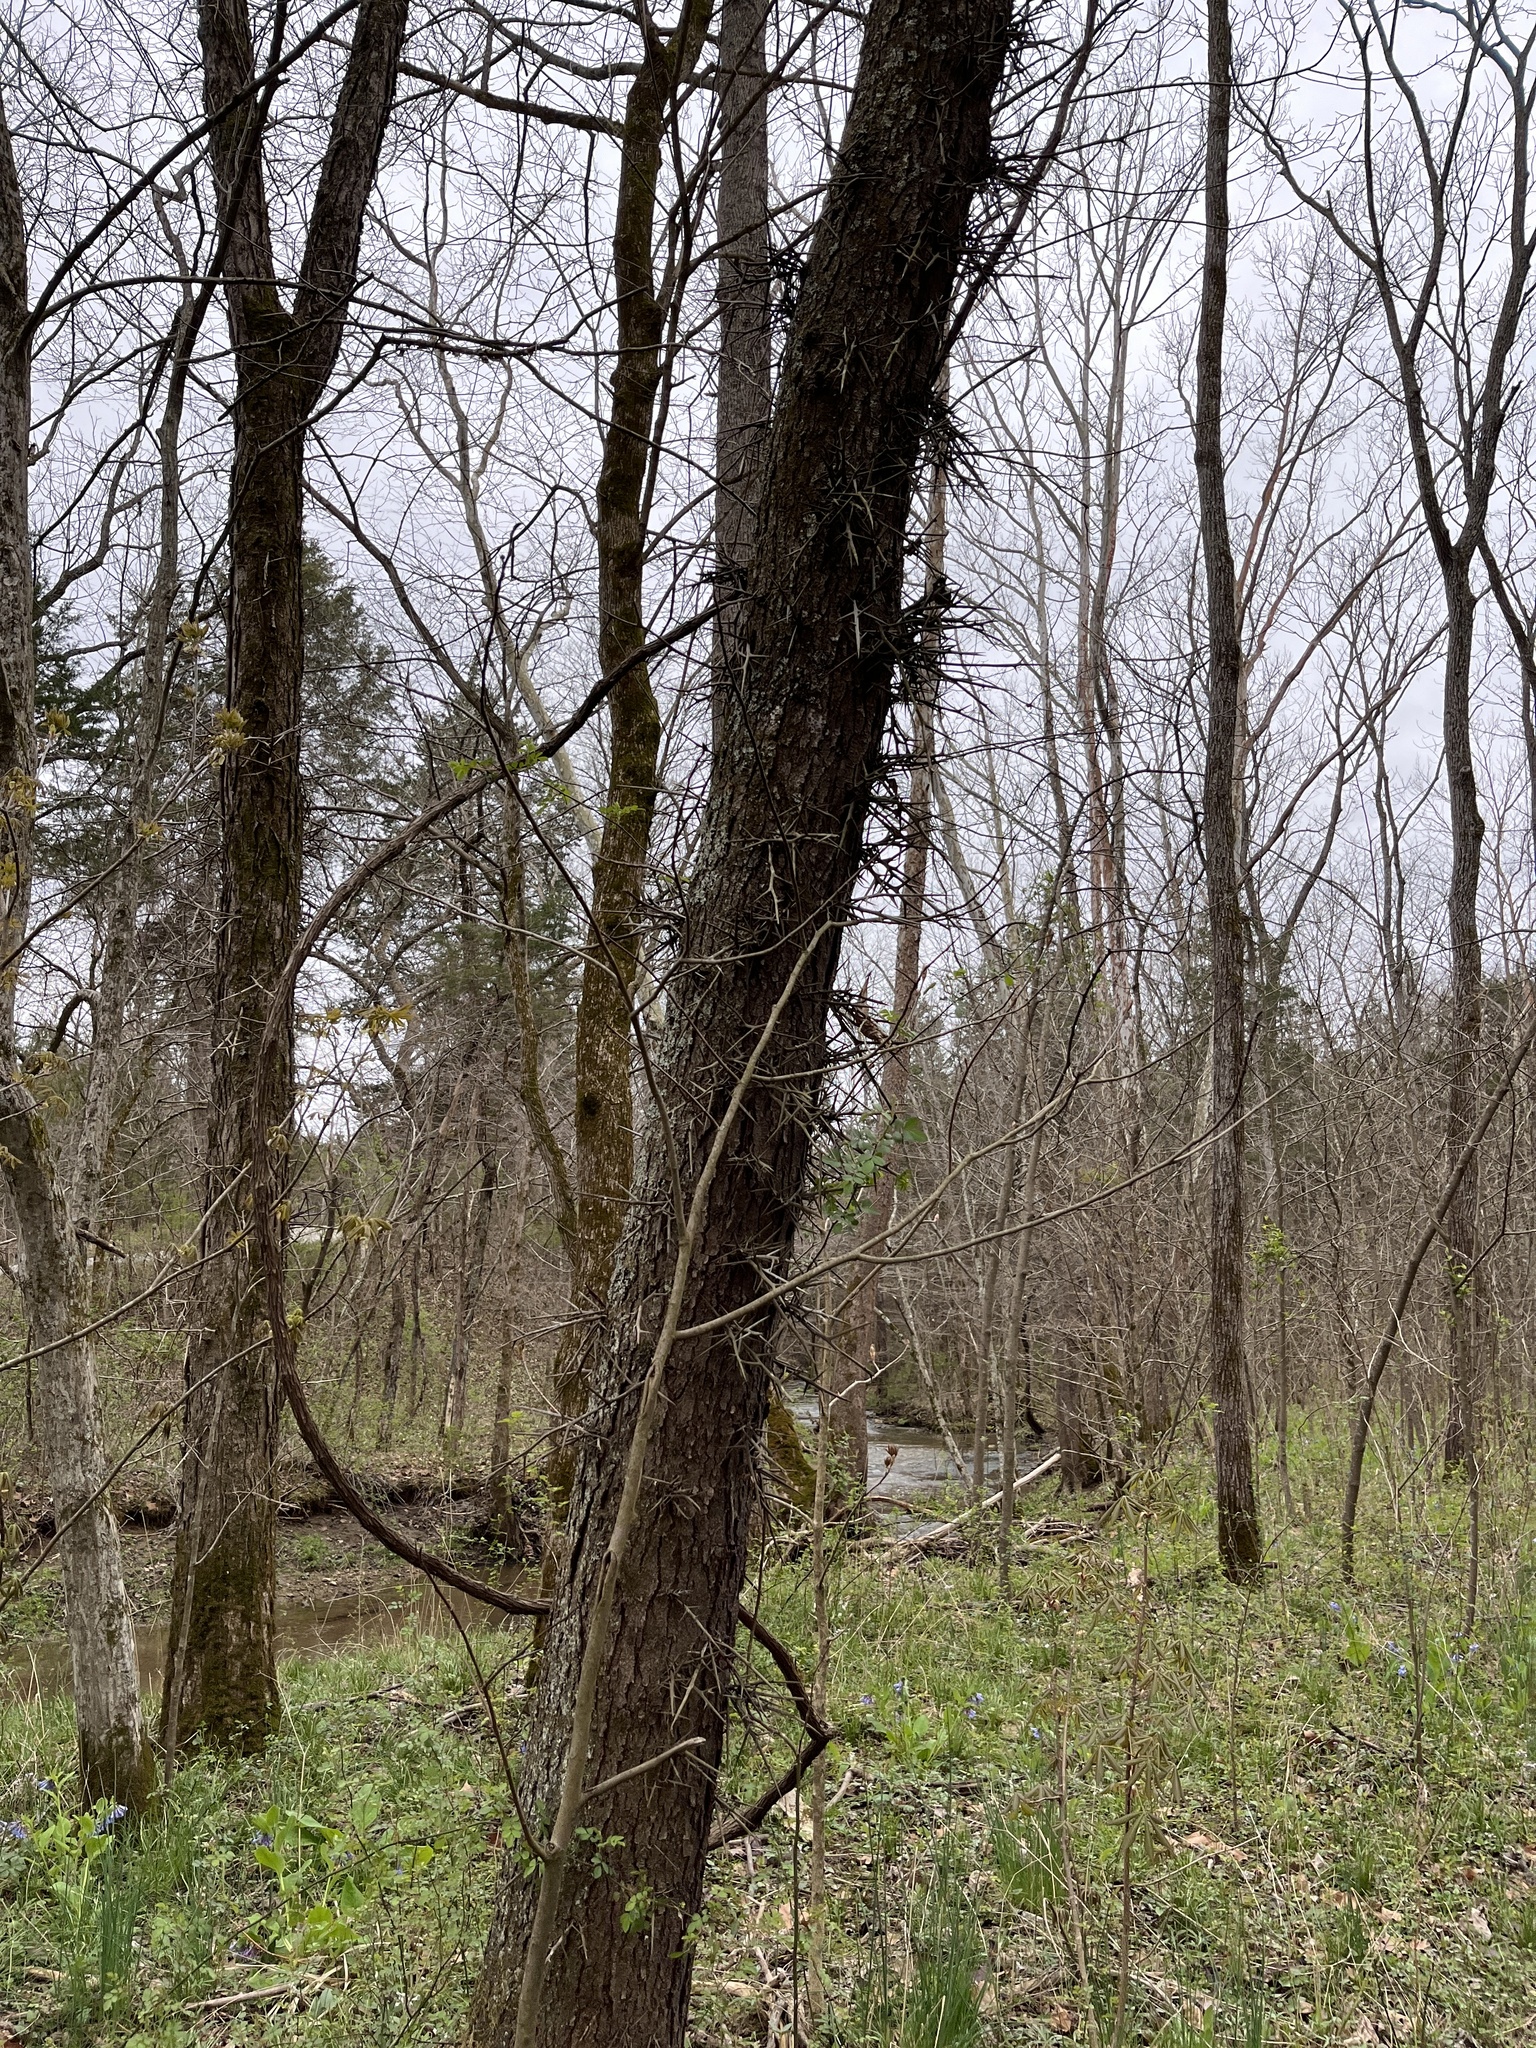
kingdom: Plantae
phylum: Tracheophyta
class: Magnoliopsida
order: Fabales
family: Fabaceae
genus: Gleditsia
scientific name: Gleditsia triacanthos
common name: Common honeylocust
